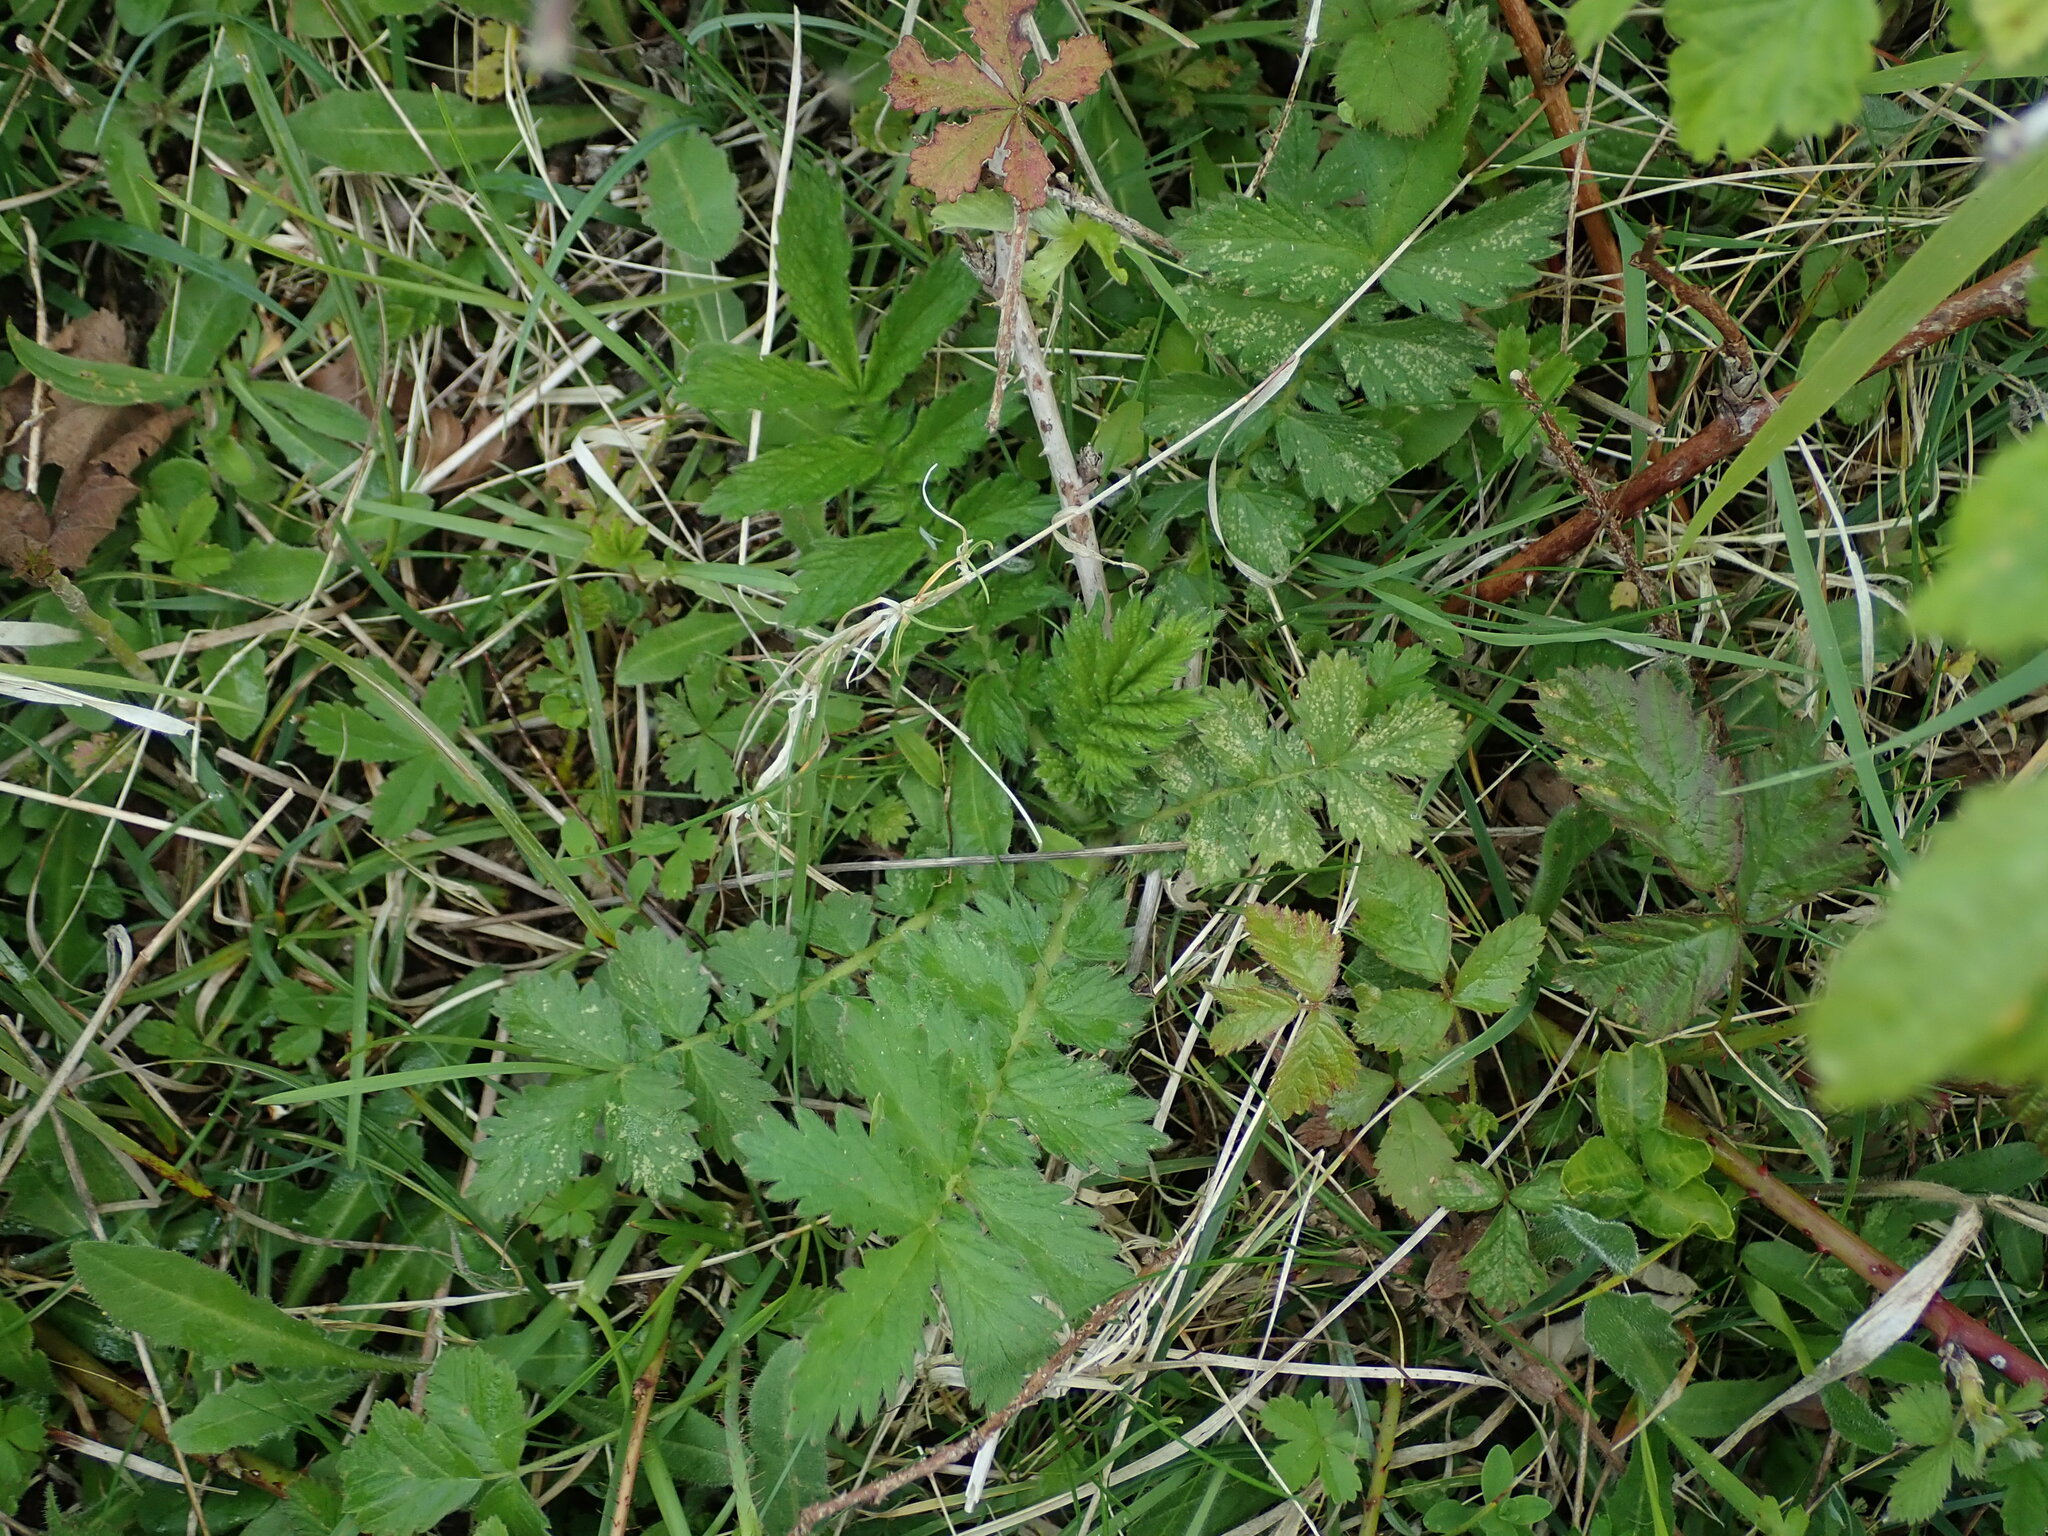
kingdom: Plantae
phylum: Tracheophyta
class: Magnoliopsida
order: Rosales
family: Rosaceae
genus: Agrimonia
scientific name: Agrimonia eupatoria
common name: Agrimony
